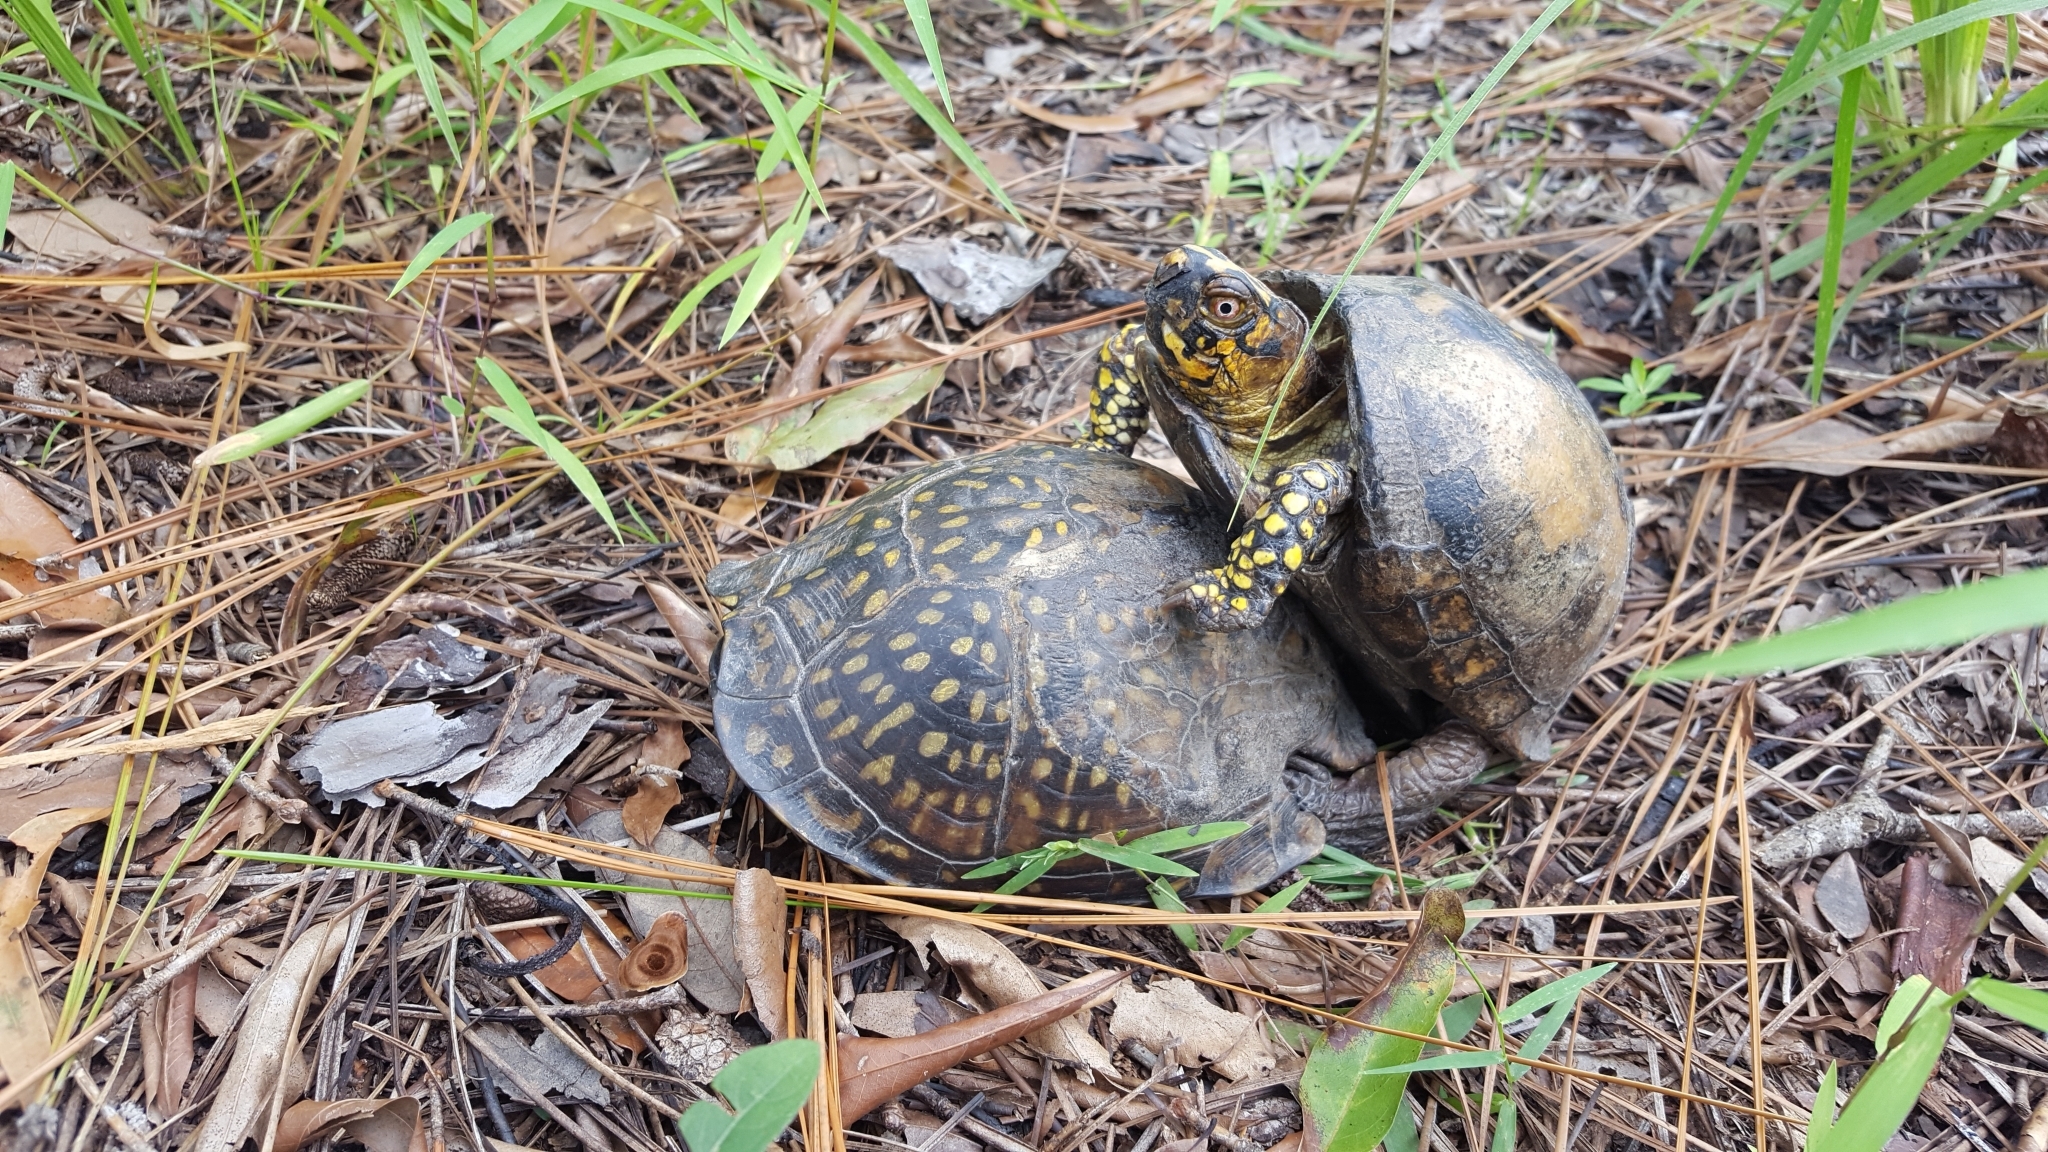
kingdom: Animalia
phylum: Chordata
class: Testudines
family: Emydidae
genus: Terrapene
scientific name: Terrapene carolina
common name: Common box turtle
